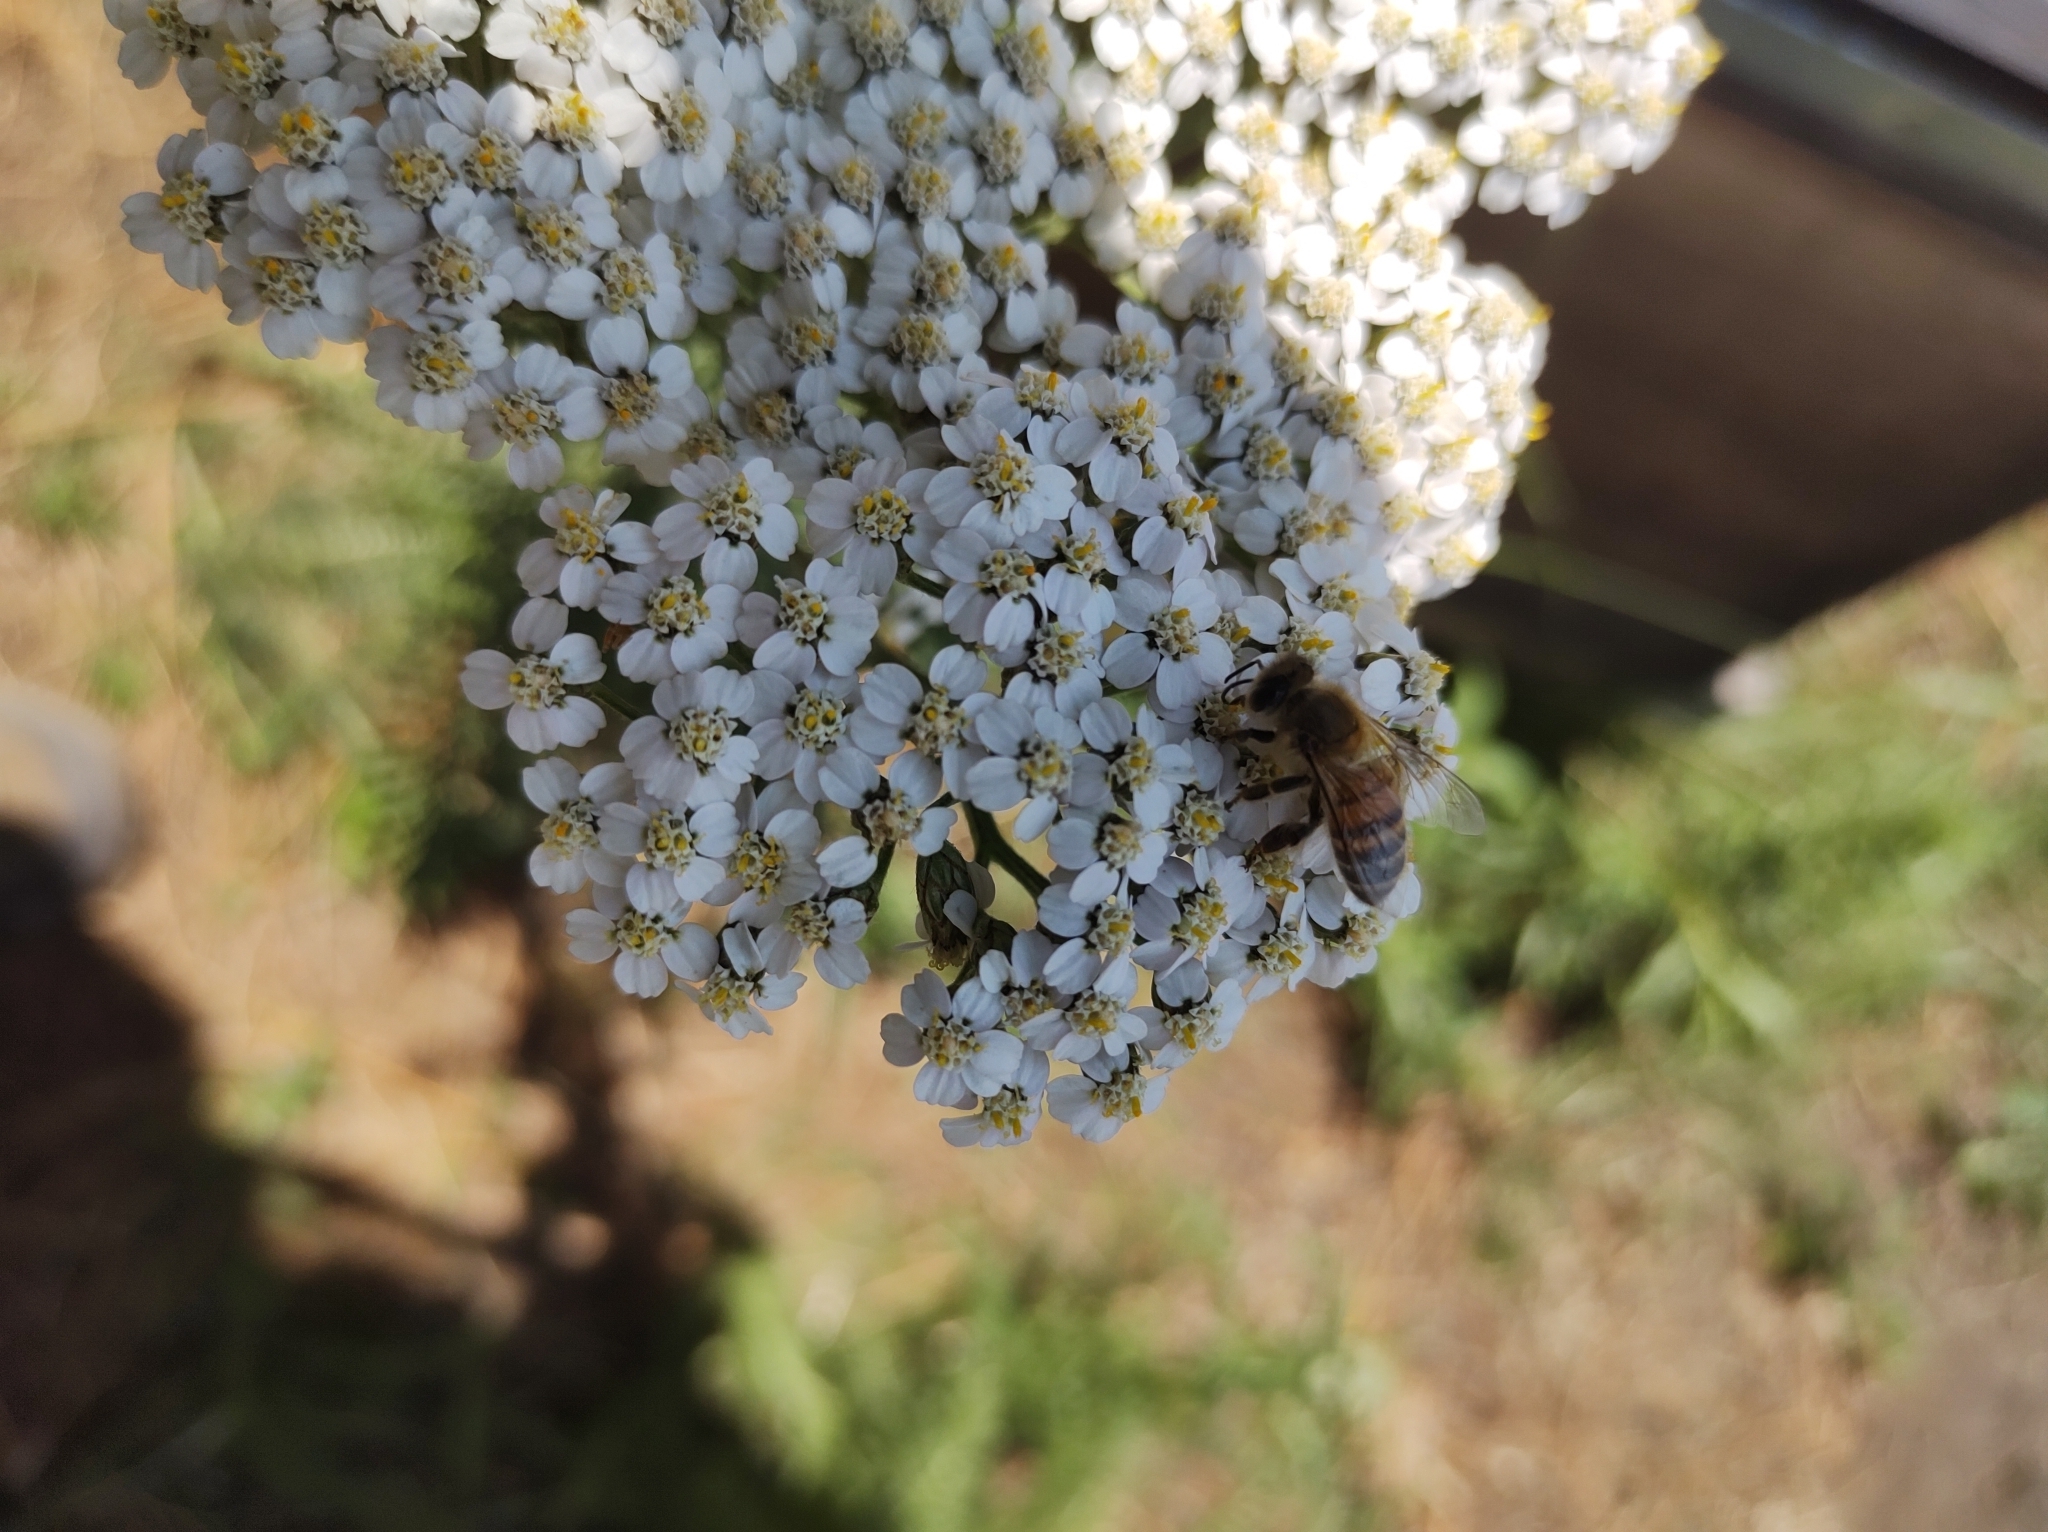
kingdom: Plantae
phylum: Tracheophyta
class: Magnoliopsida
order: Asterales
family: Asteraceae
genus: Achillea
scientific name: Achillea millefolium
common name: Yarrow
